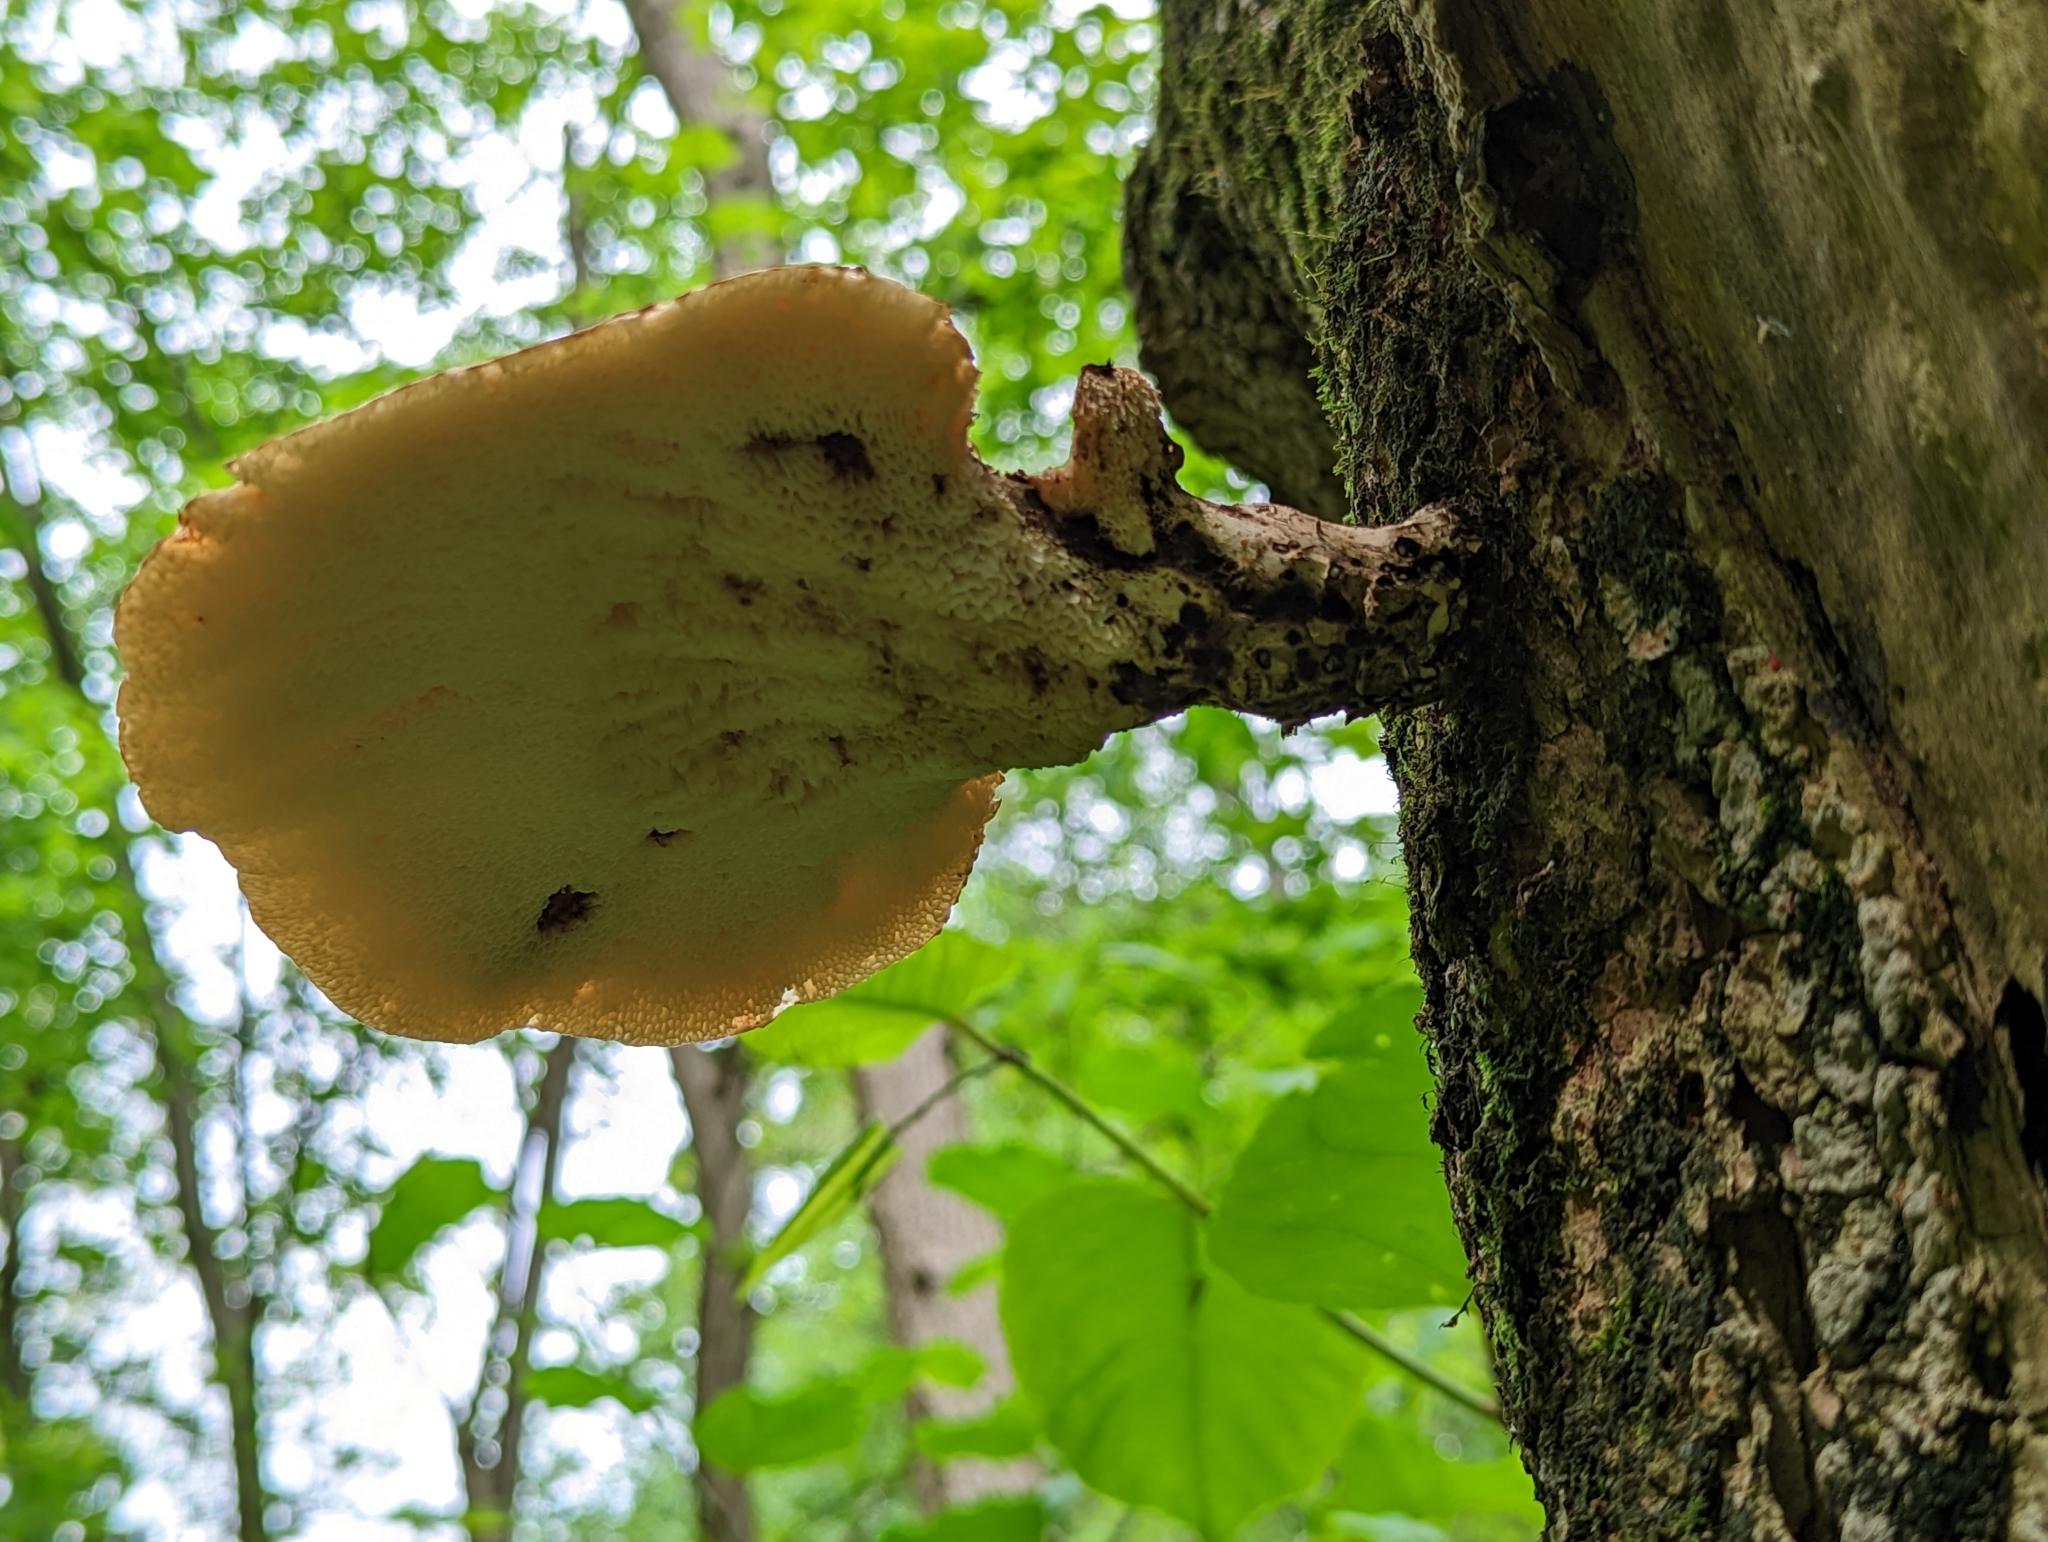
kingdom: Fungi
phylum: Basidiomycota
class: Agaricomycetes
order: Polyporales
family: Polyporaceae
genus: Cerioporus
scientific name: Cerioporus squamosus
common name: Dryad's saddle
